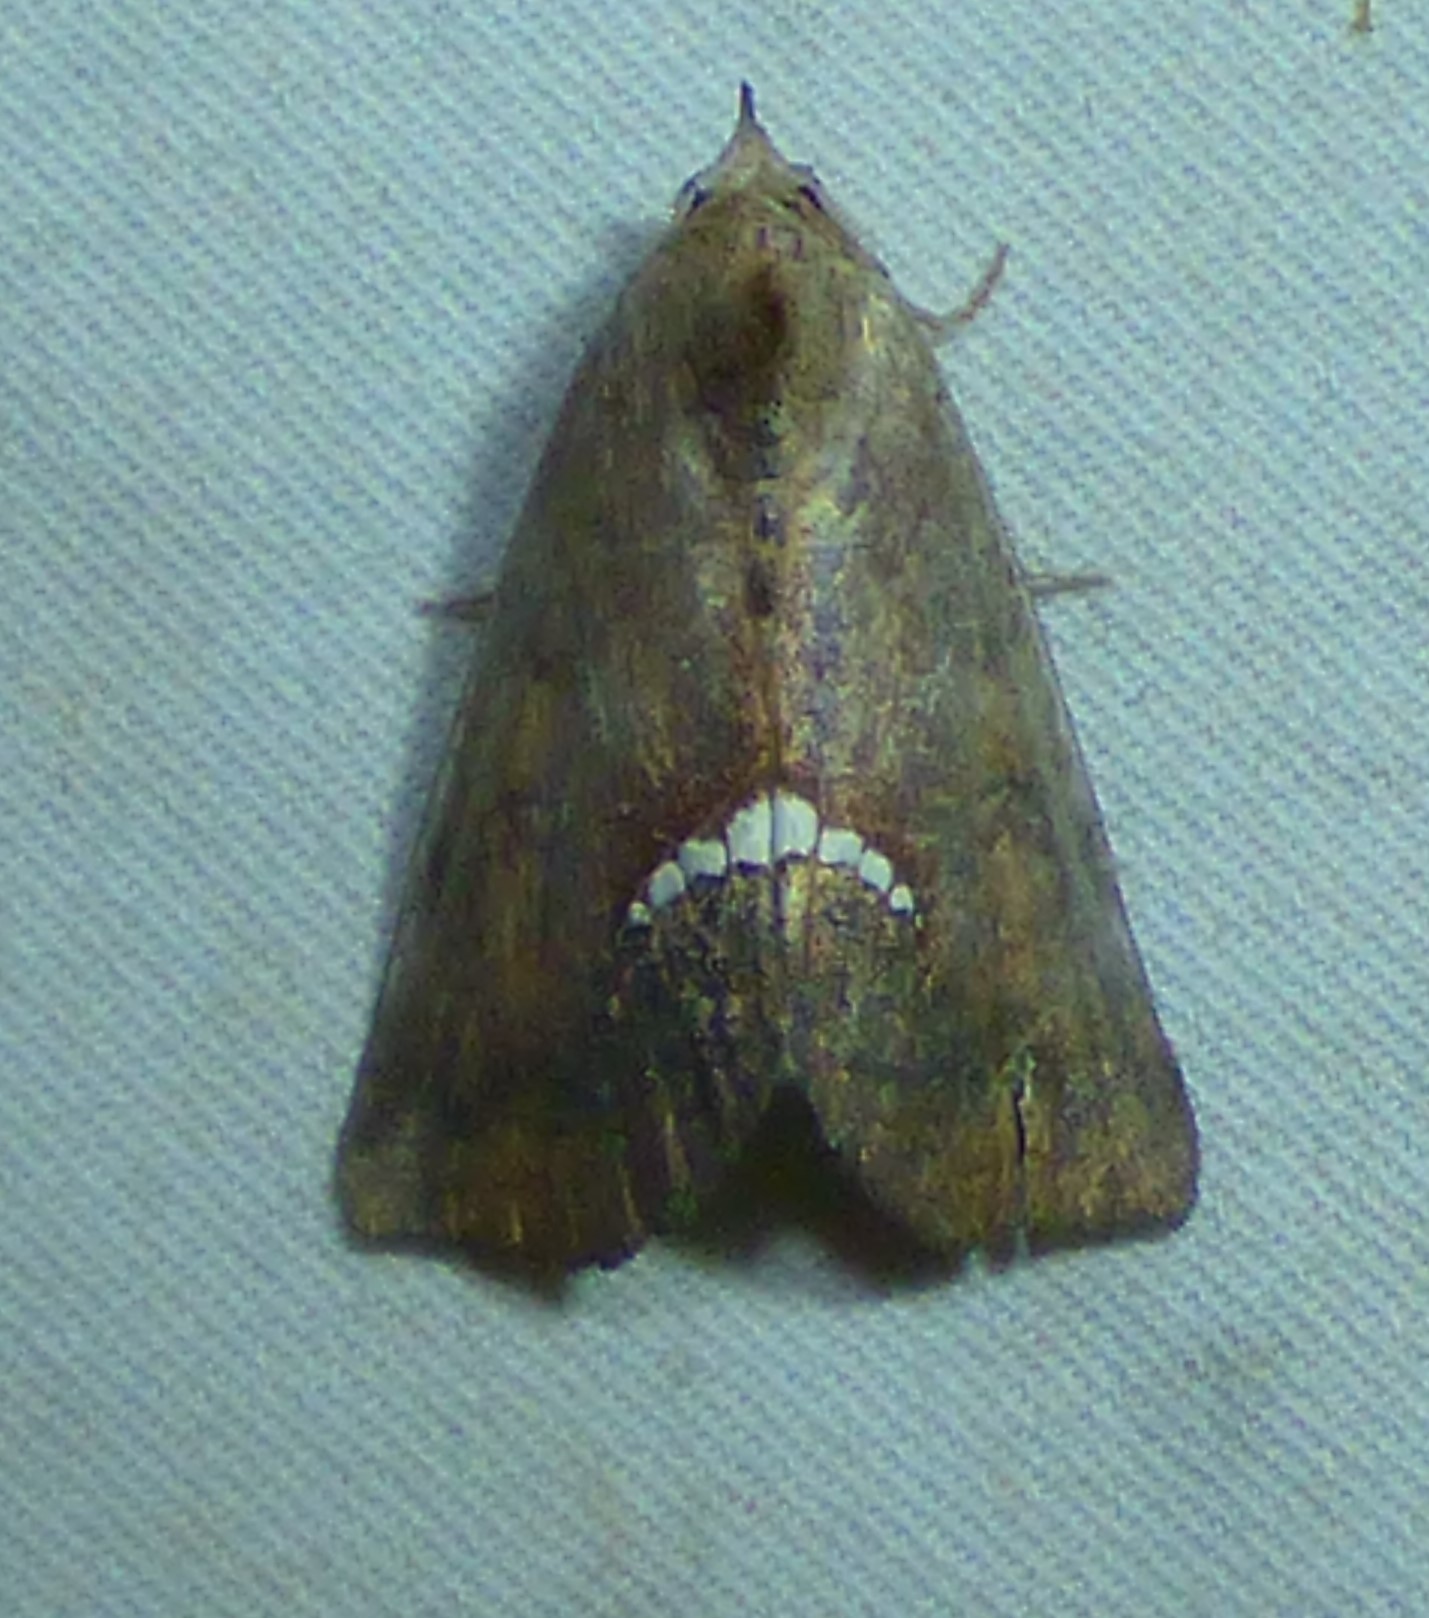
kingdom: Animalia
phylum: Arthropoda
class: Insecta
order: Lepidoptera
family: Erebidae
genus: Hypsoropha
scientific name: Hypsoropha hormos
